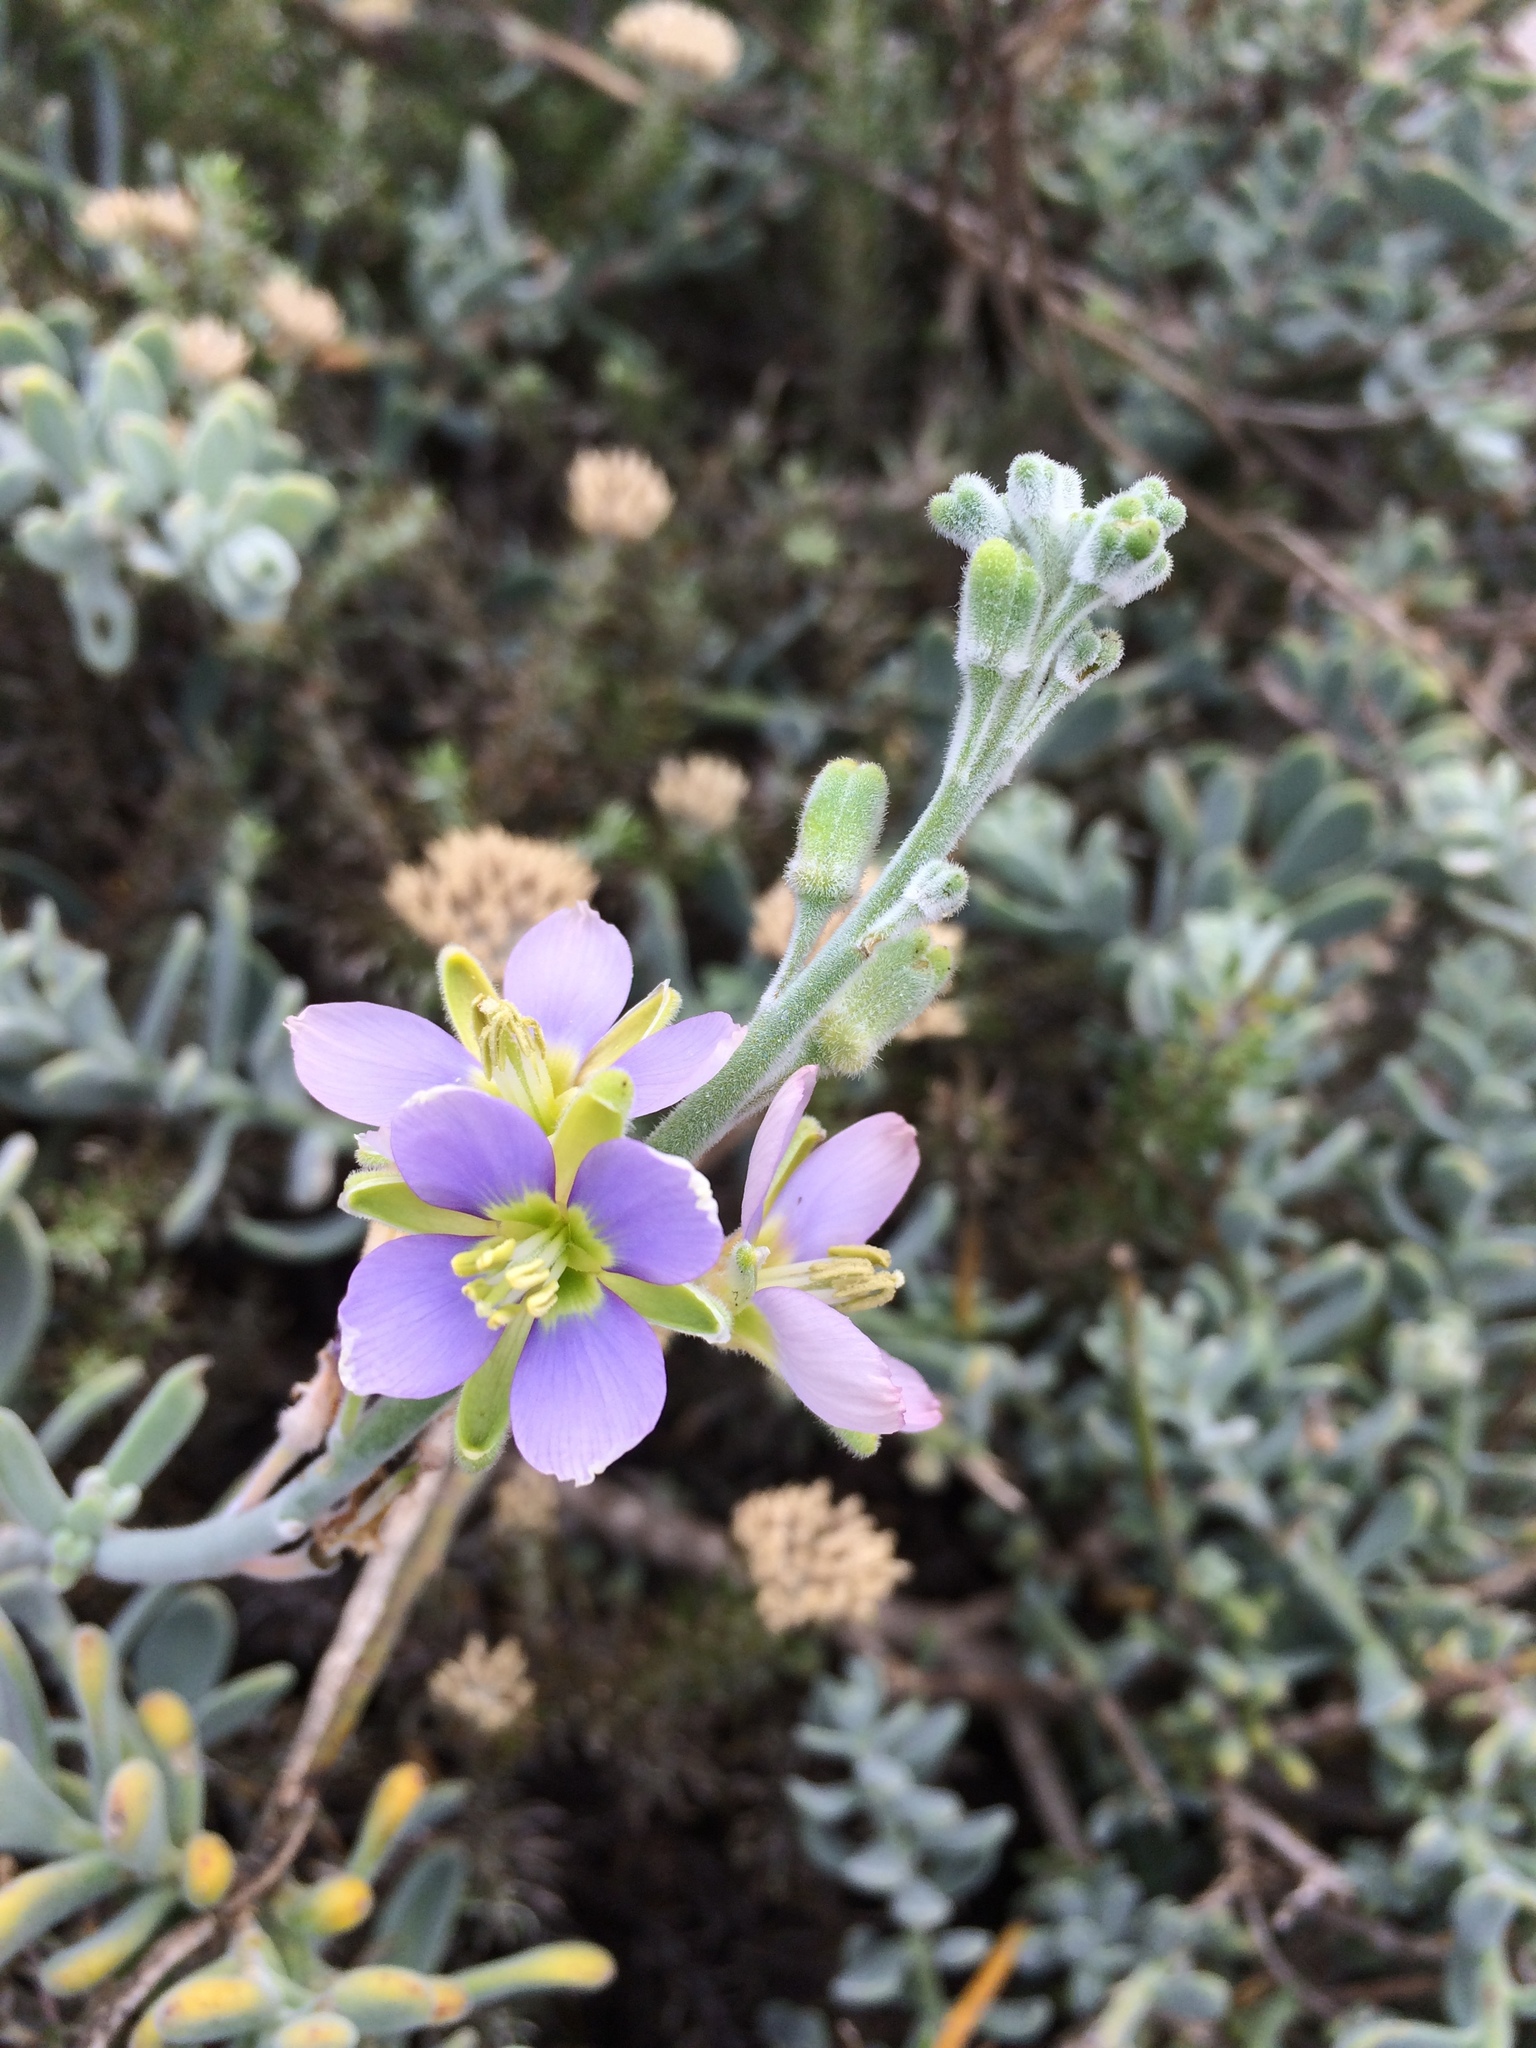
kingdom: Plantae
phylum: Tracheophyta
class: Magnoliopsida
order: Brassicales
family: Brassicaceae
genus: Heliophila
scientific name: Heliophila cinerea
